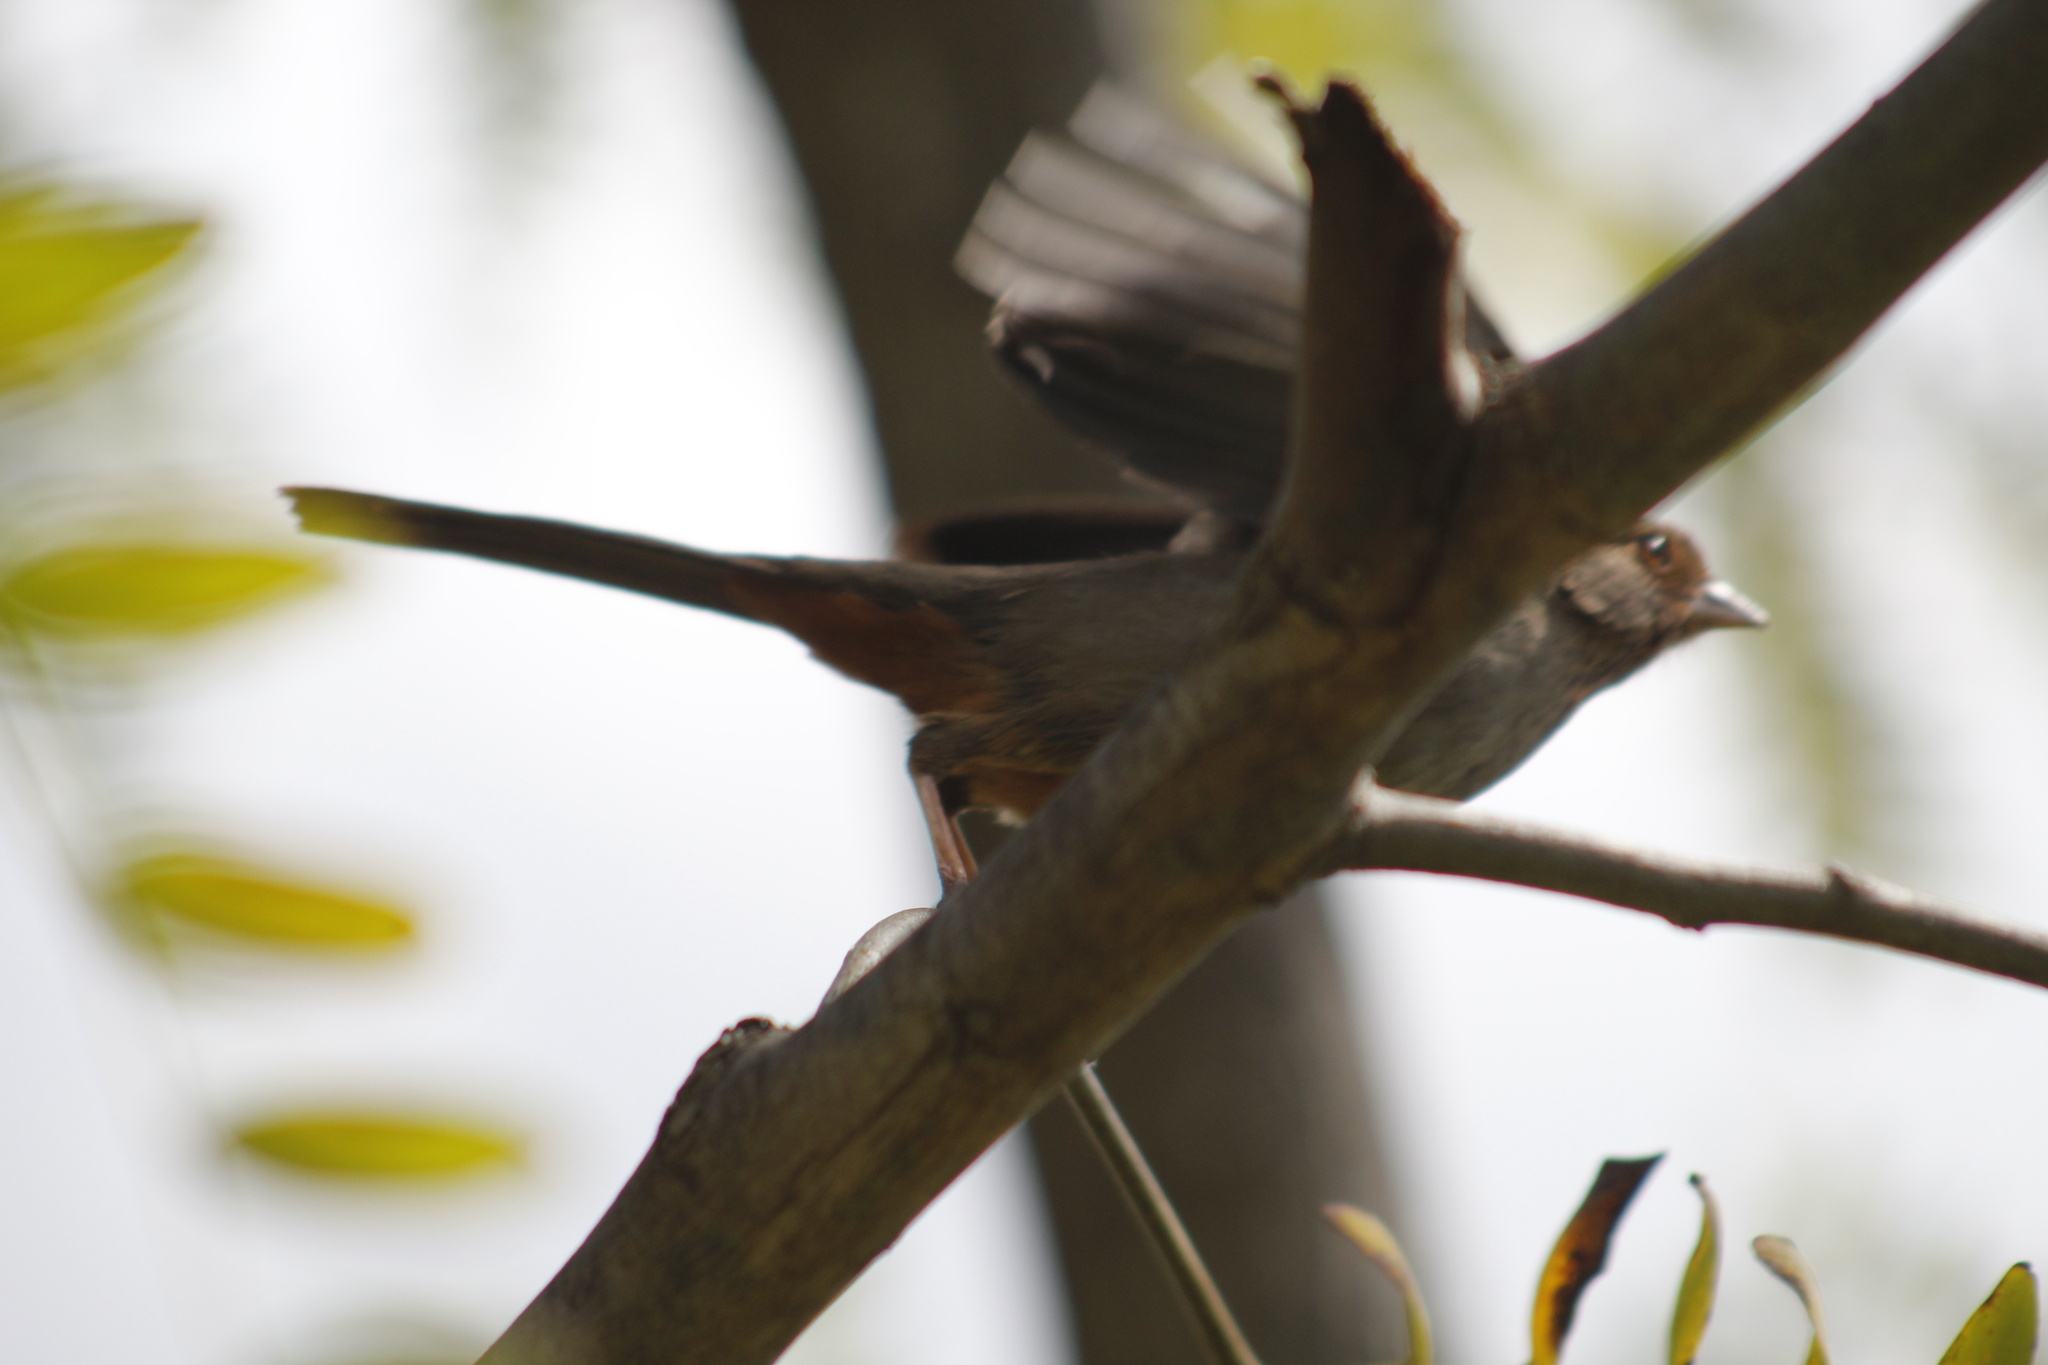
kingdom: Animalia
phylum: Chordata
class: Aves
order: Passeriformes
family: Passerellidae
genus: Melozone
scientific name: Melozone crissalis
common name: California towhee
